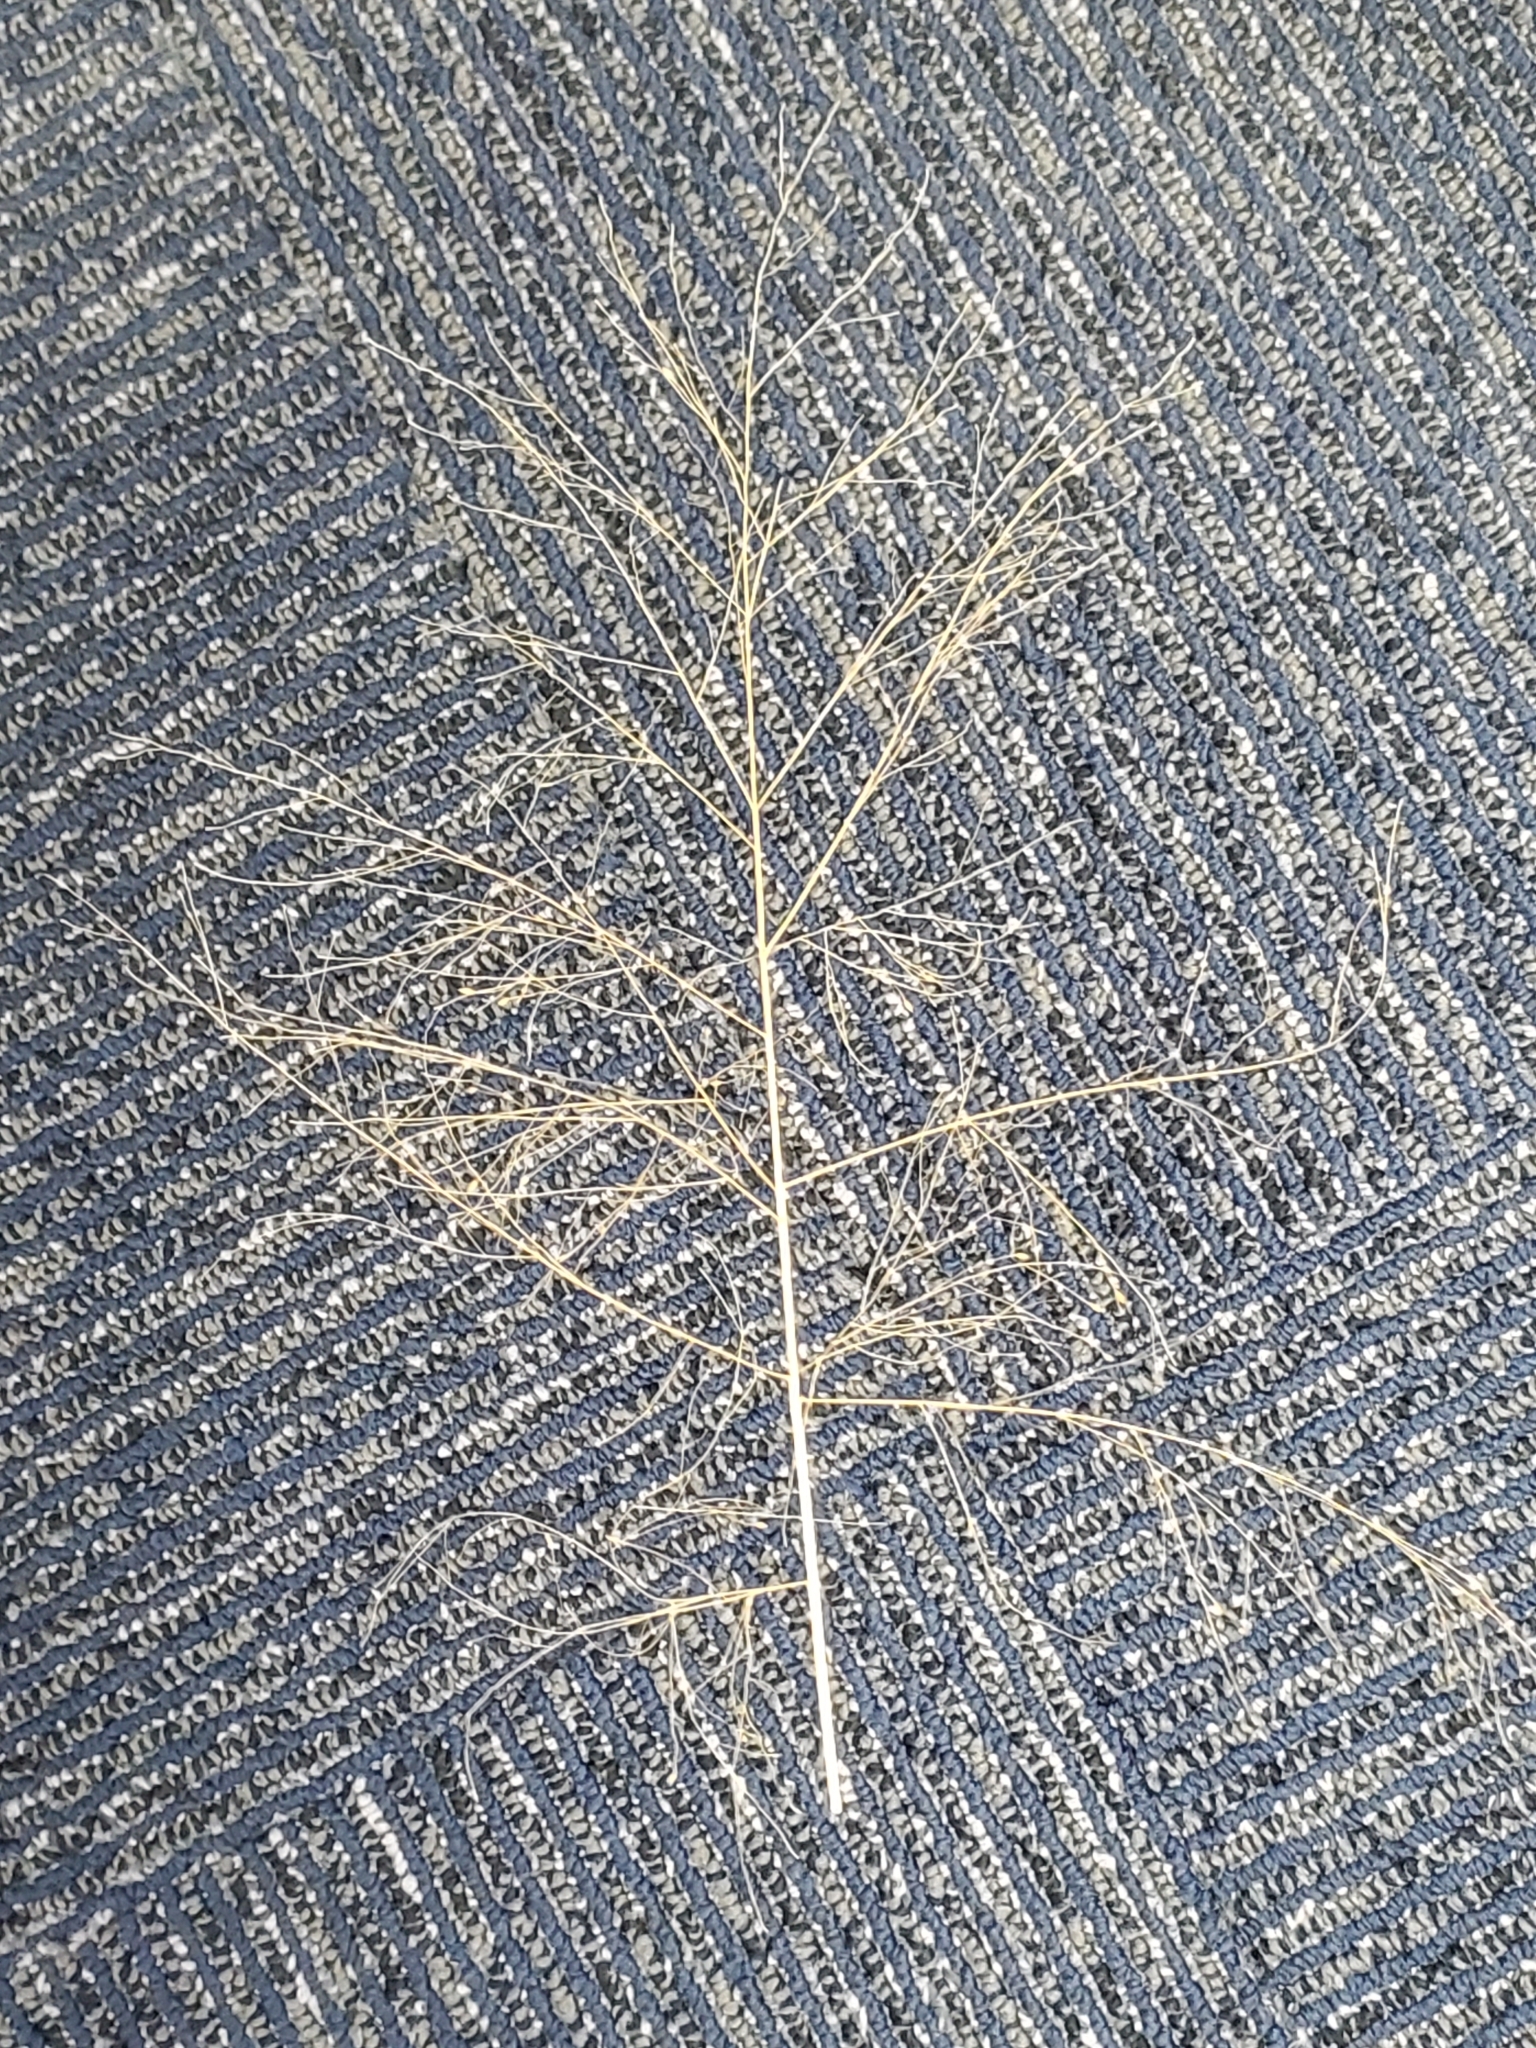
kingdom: Plantae
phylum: Tracheophyta
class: Liliopsida
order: Asparagales
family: Asparagaceae
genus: Asparagus
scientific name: Asparagus officinalis
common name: Garden asparagus
